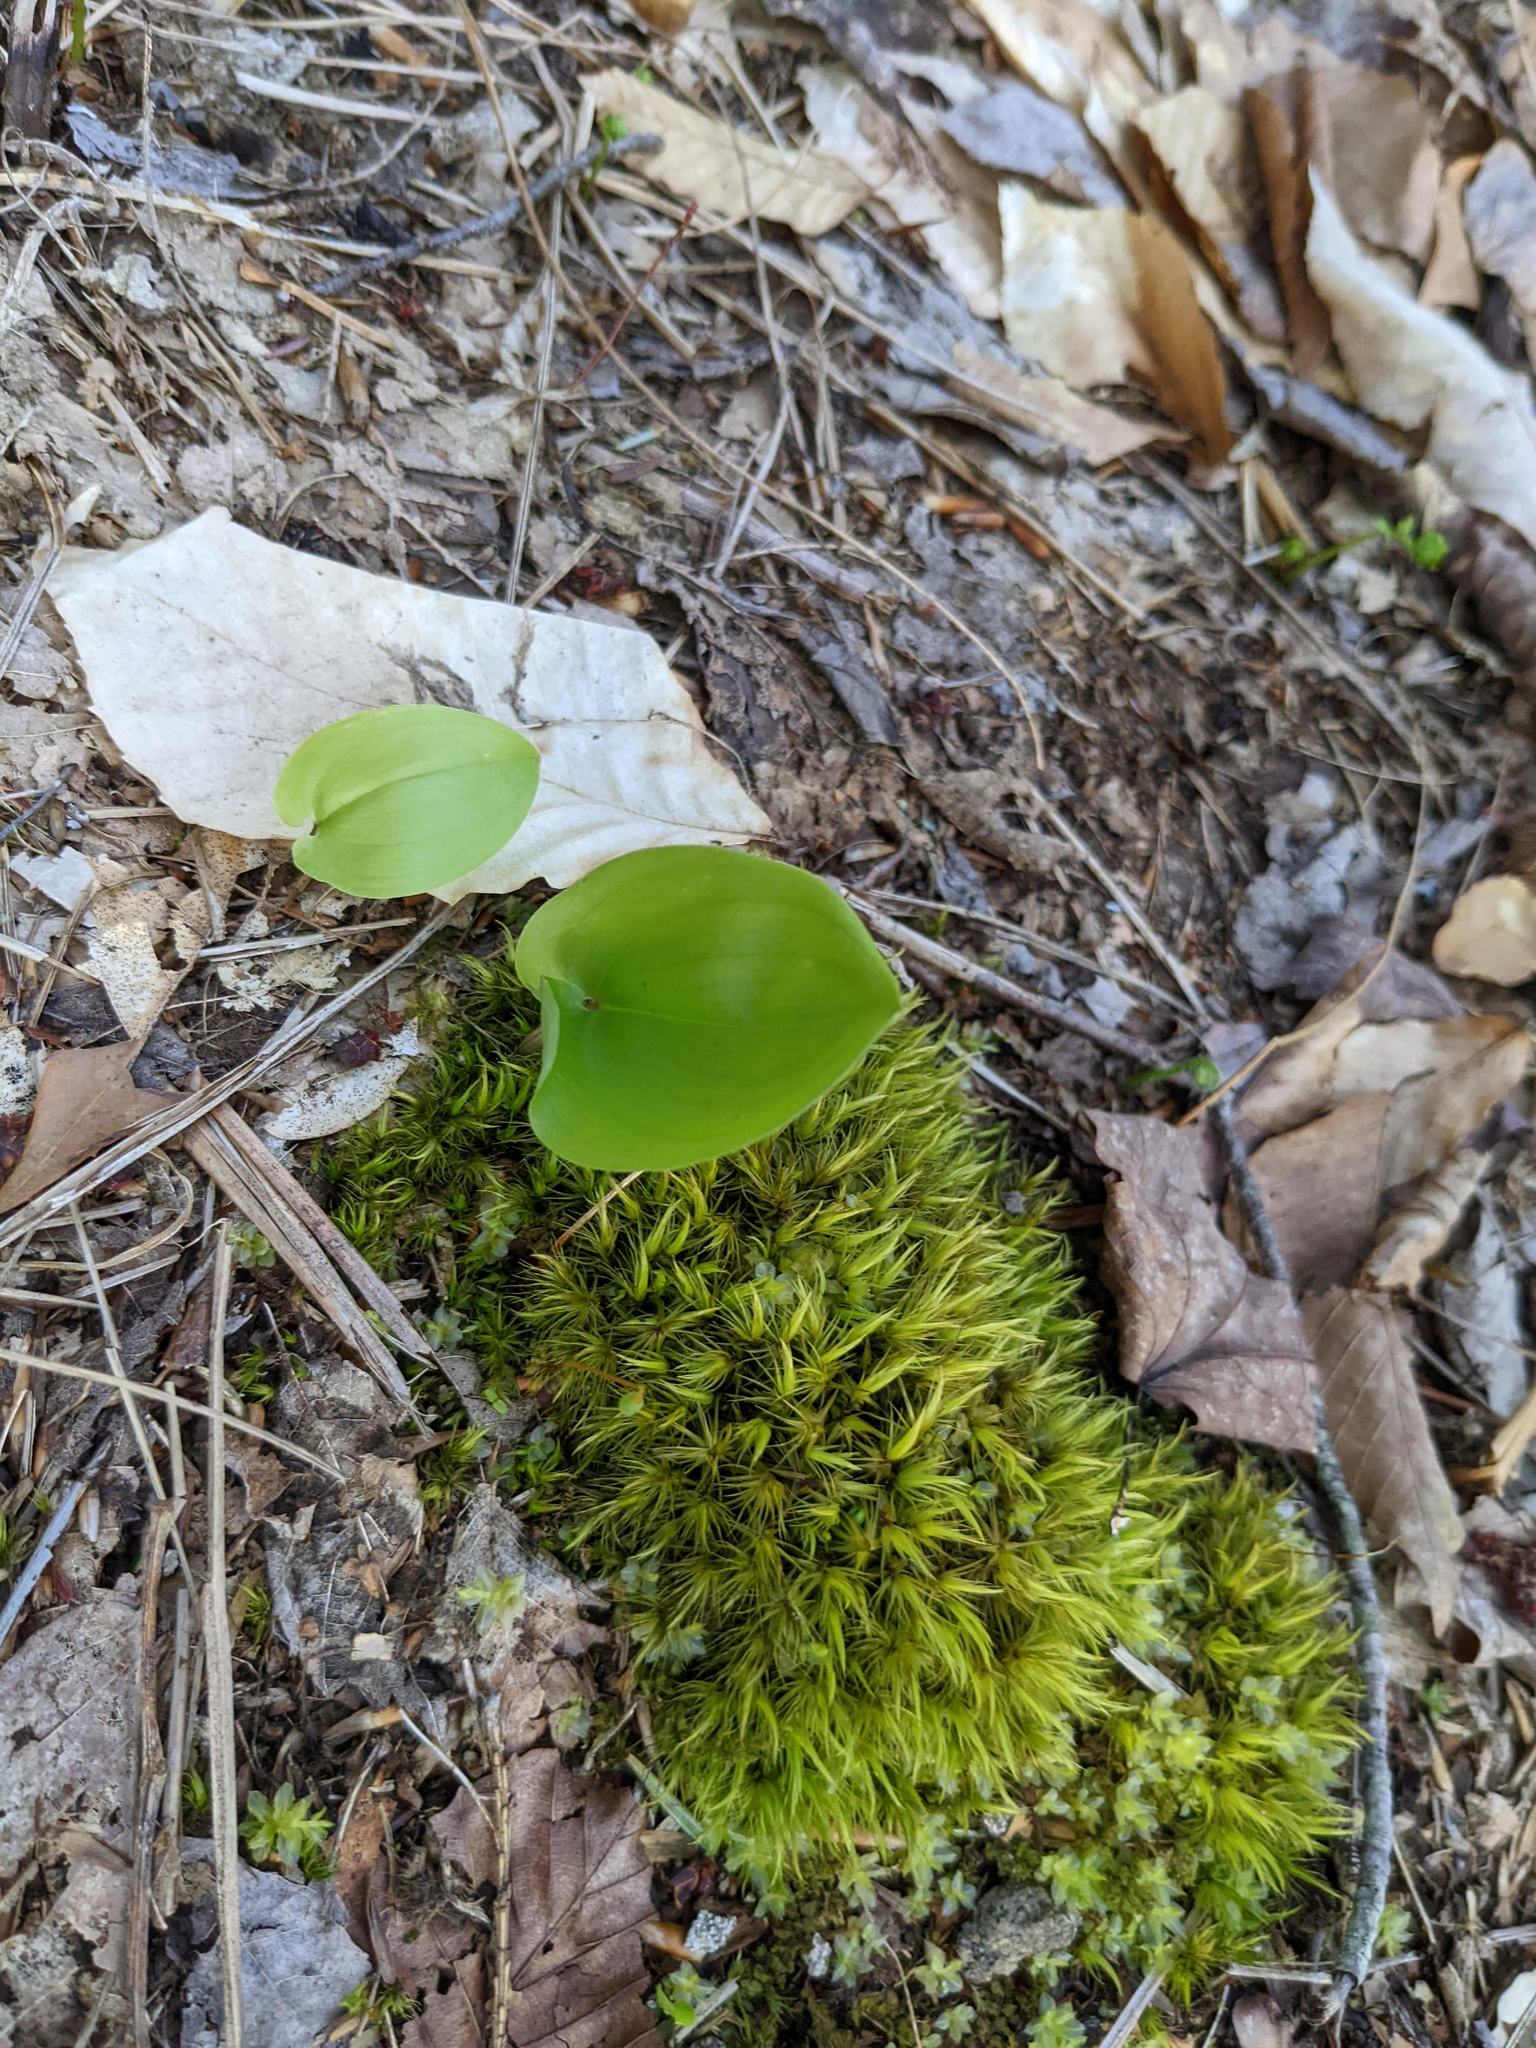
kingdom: Plantae
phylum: Tracheophyta
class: Liliopsida
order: Asparagales
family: Asparagaceae
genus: Maianthemum
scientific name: Maianthemum canadense
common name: False lily-of-the-valley
